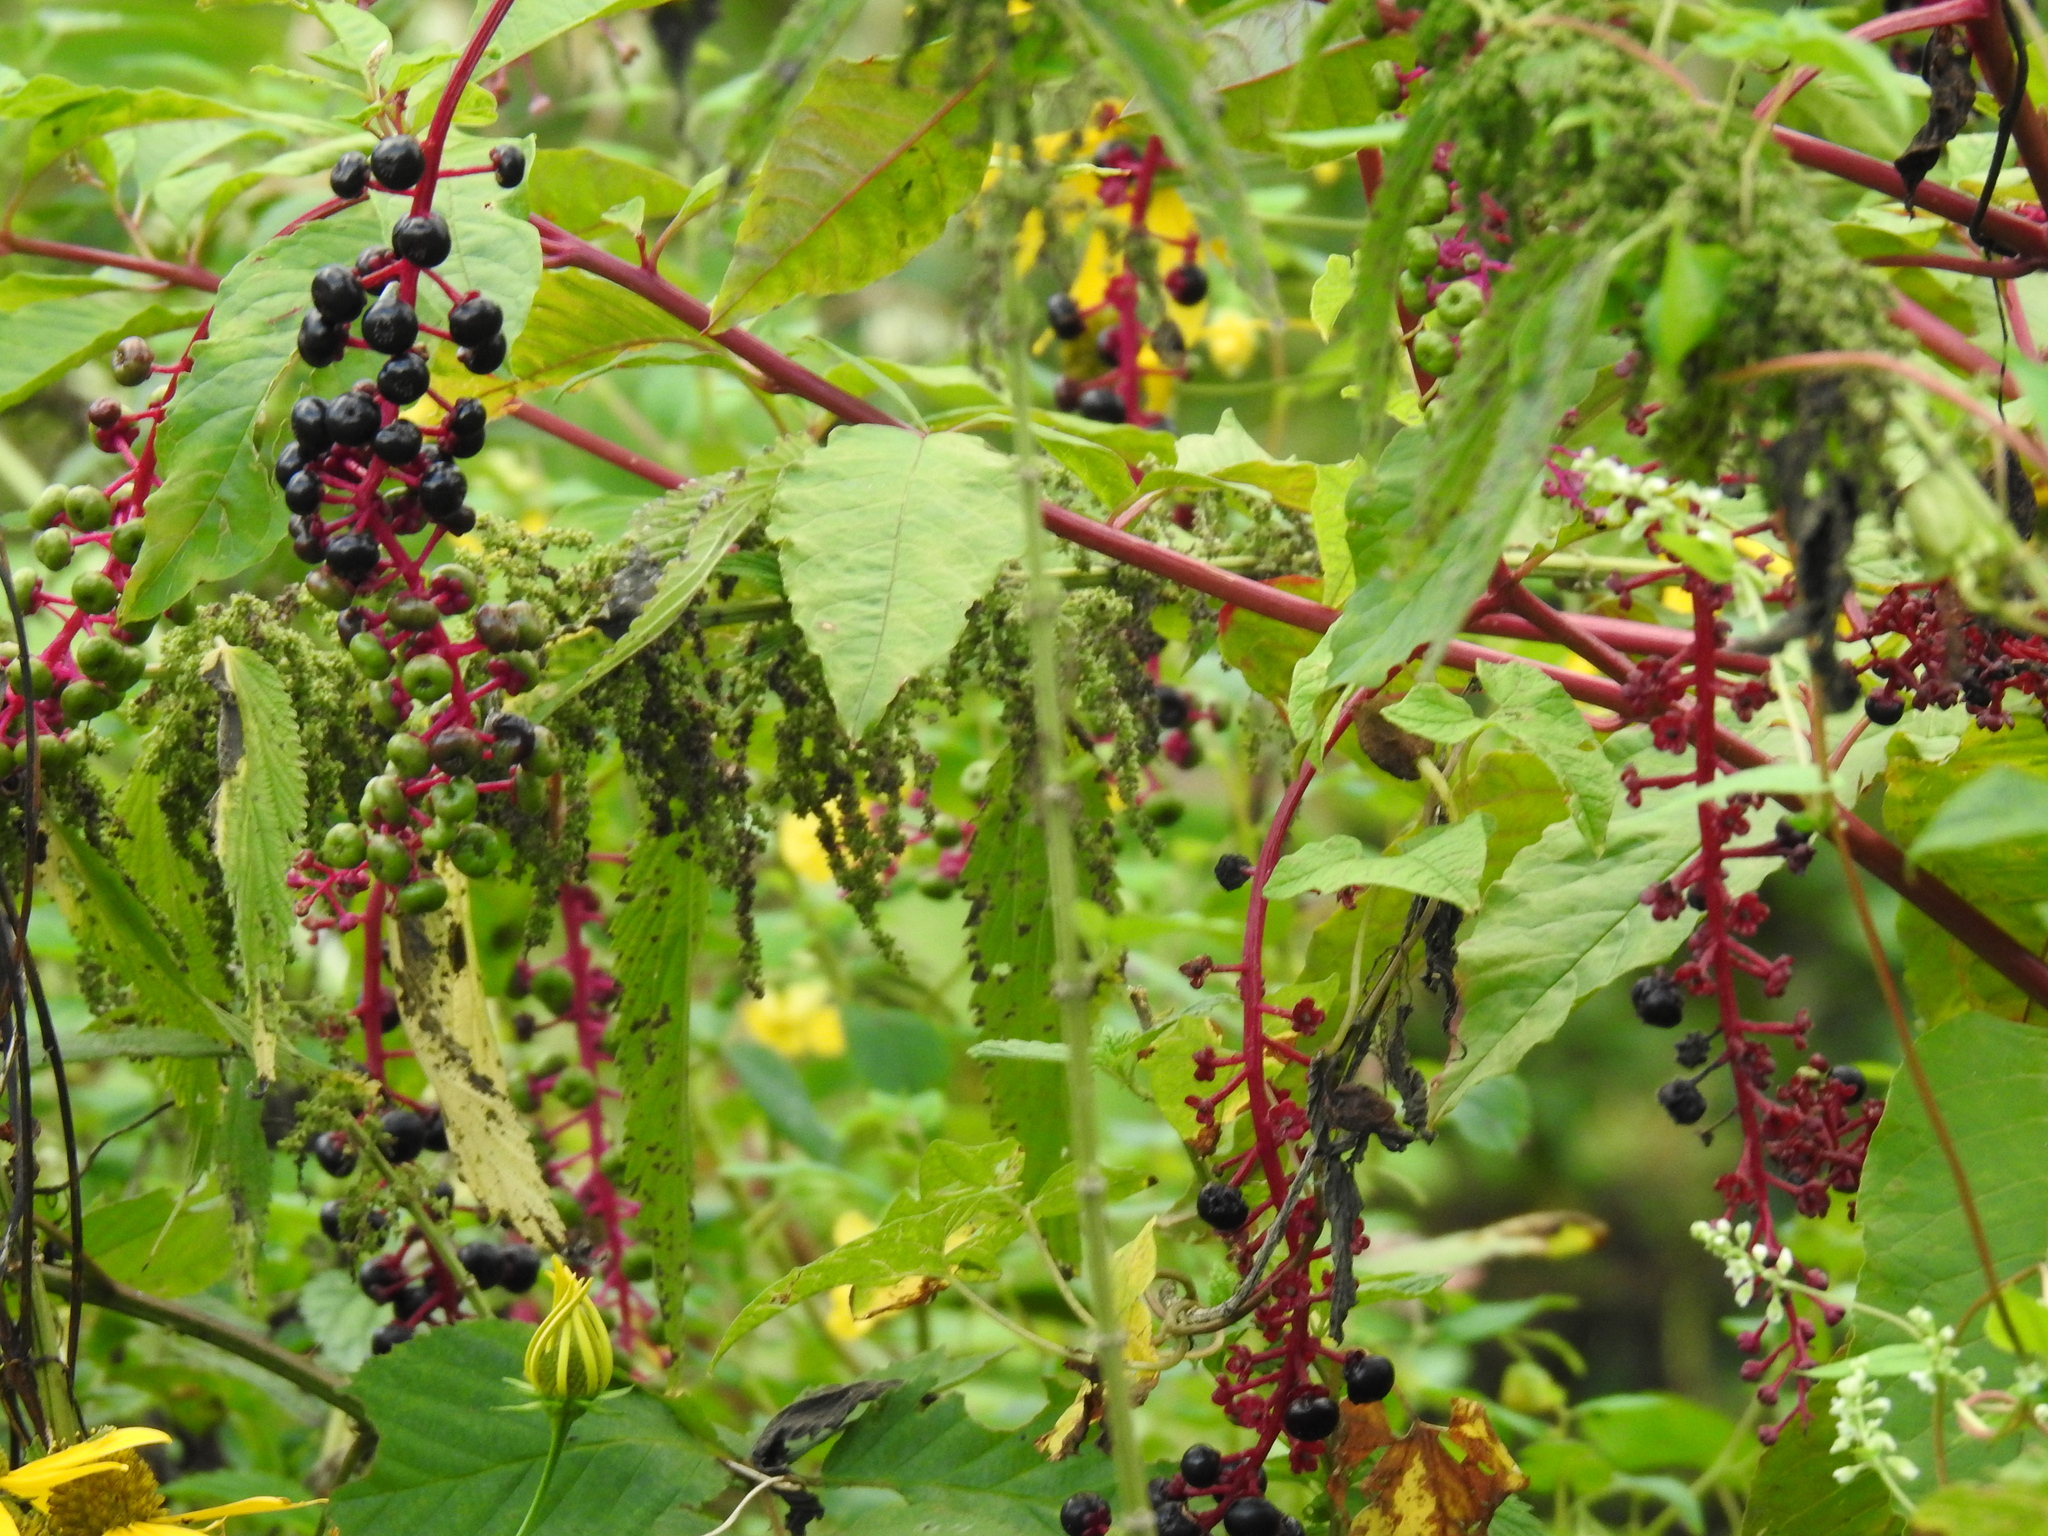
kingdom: Plantae
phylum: Tracheophyta
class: Magnoliopsida
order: Caryophyllales
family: Phytolaccaceae
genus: Phytolacca
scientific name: Phytolacca americana
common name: American pokeweed
